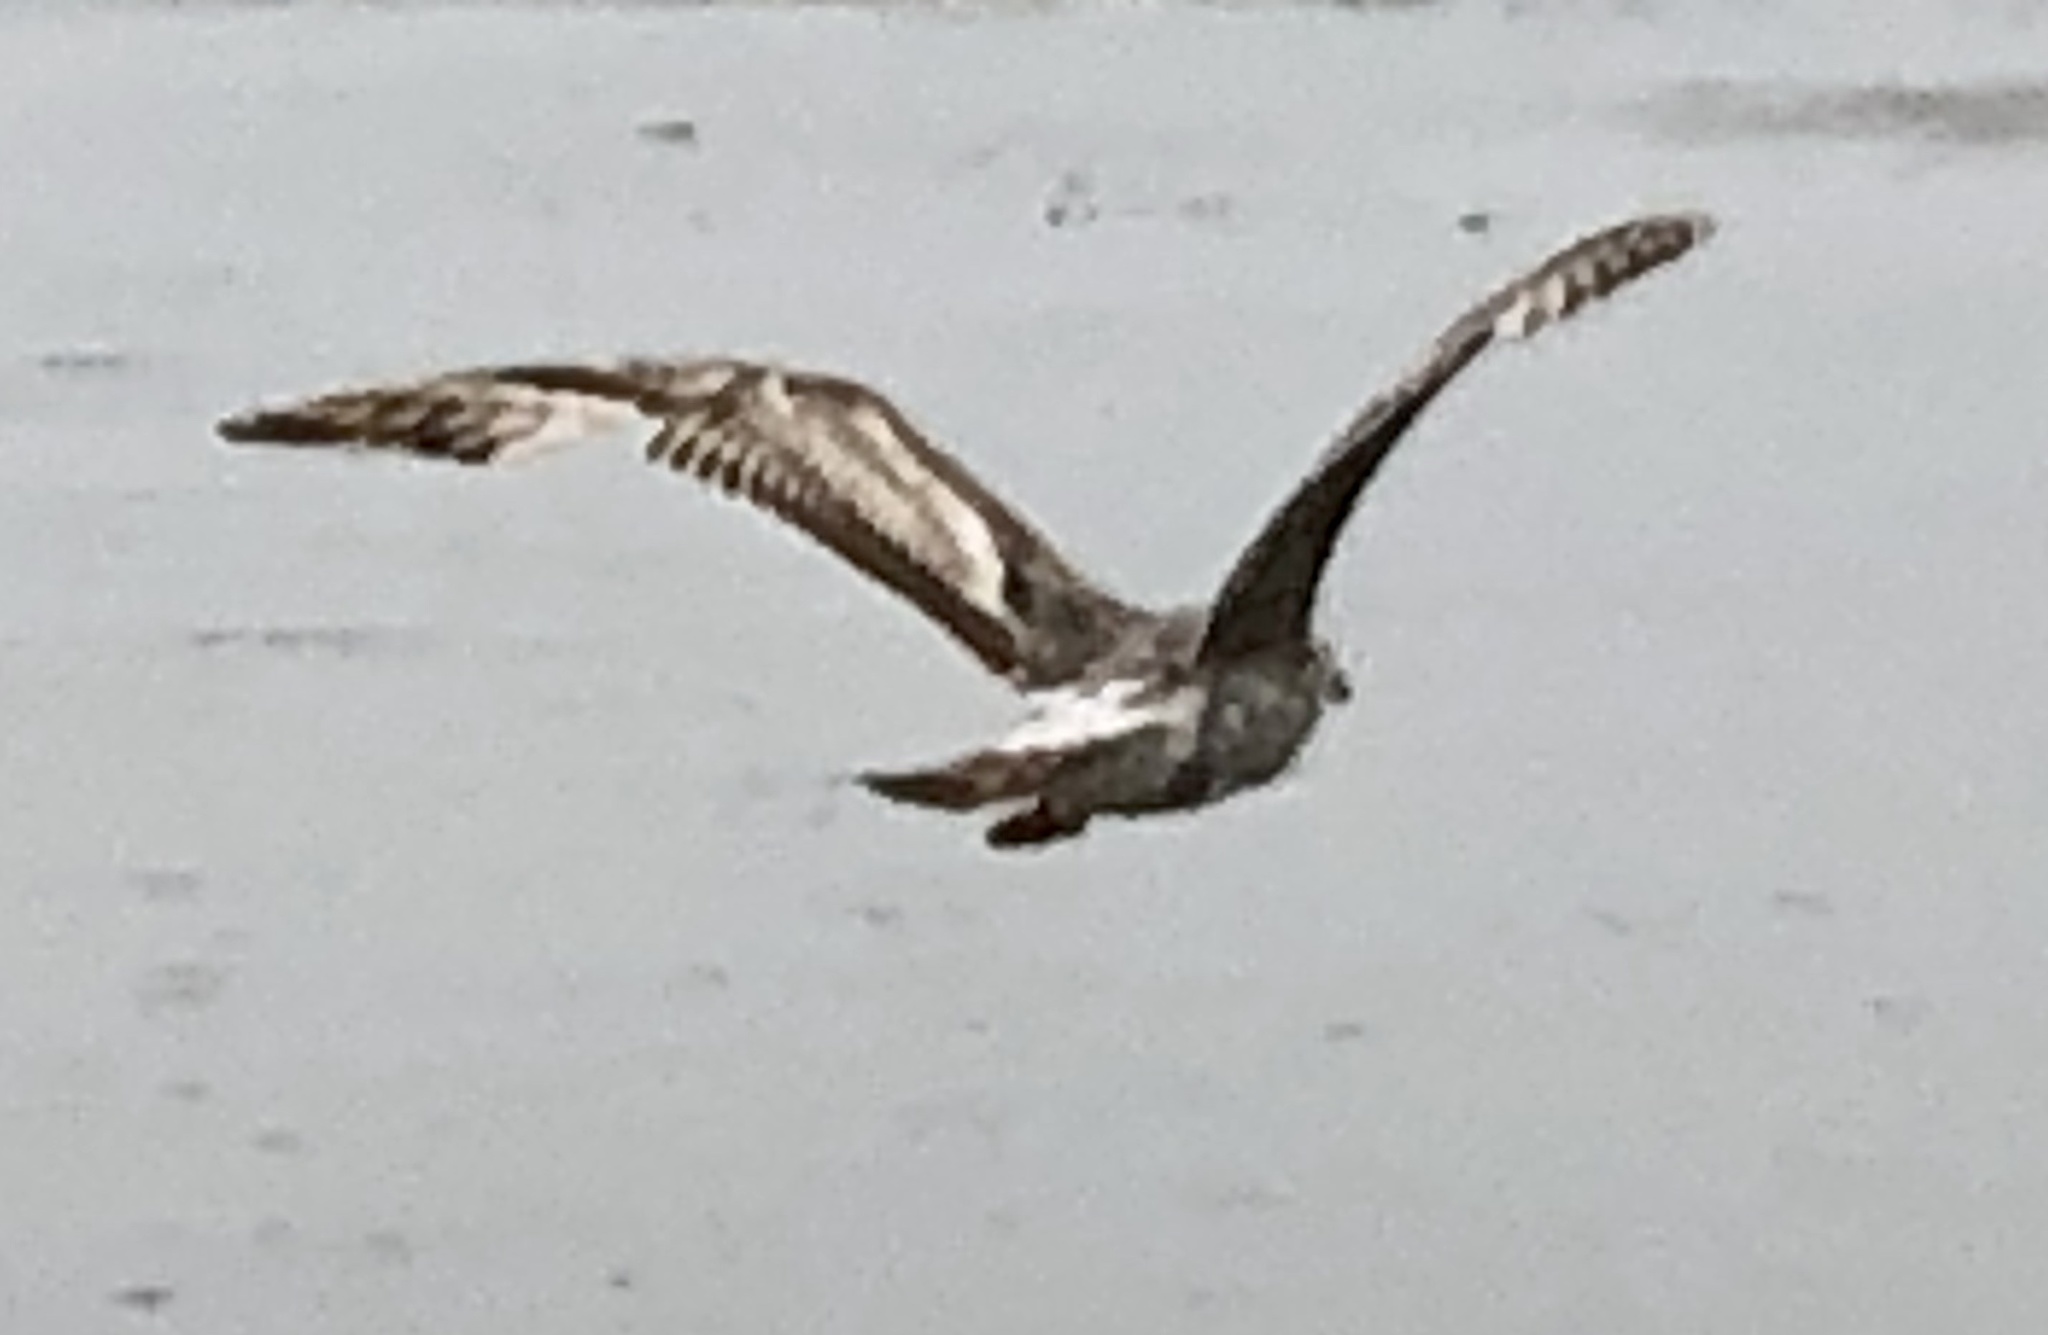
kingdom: Animalia
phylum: Chordata
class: Aves
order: Charadriiformes
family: Laridae
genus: Larus
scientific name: Larus occidentalis
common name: Western gull
